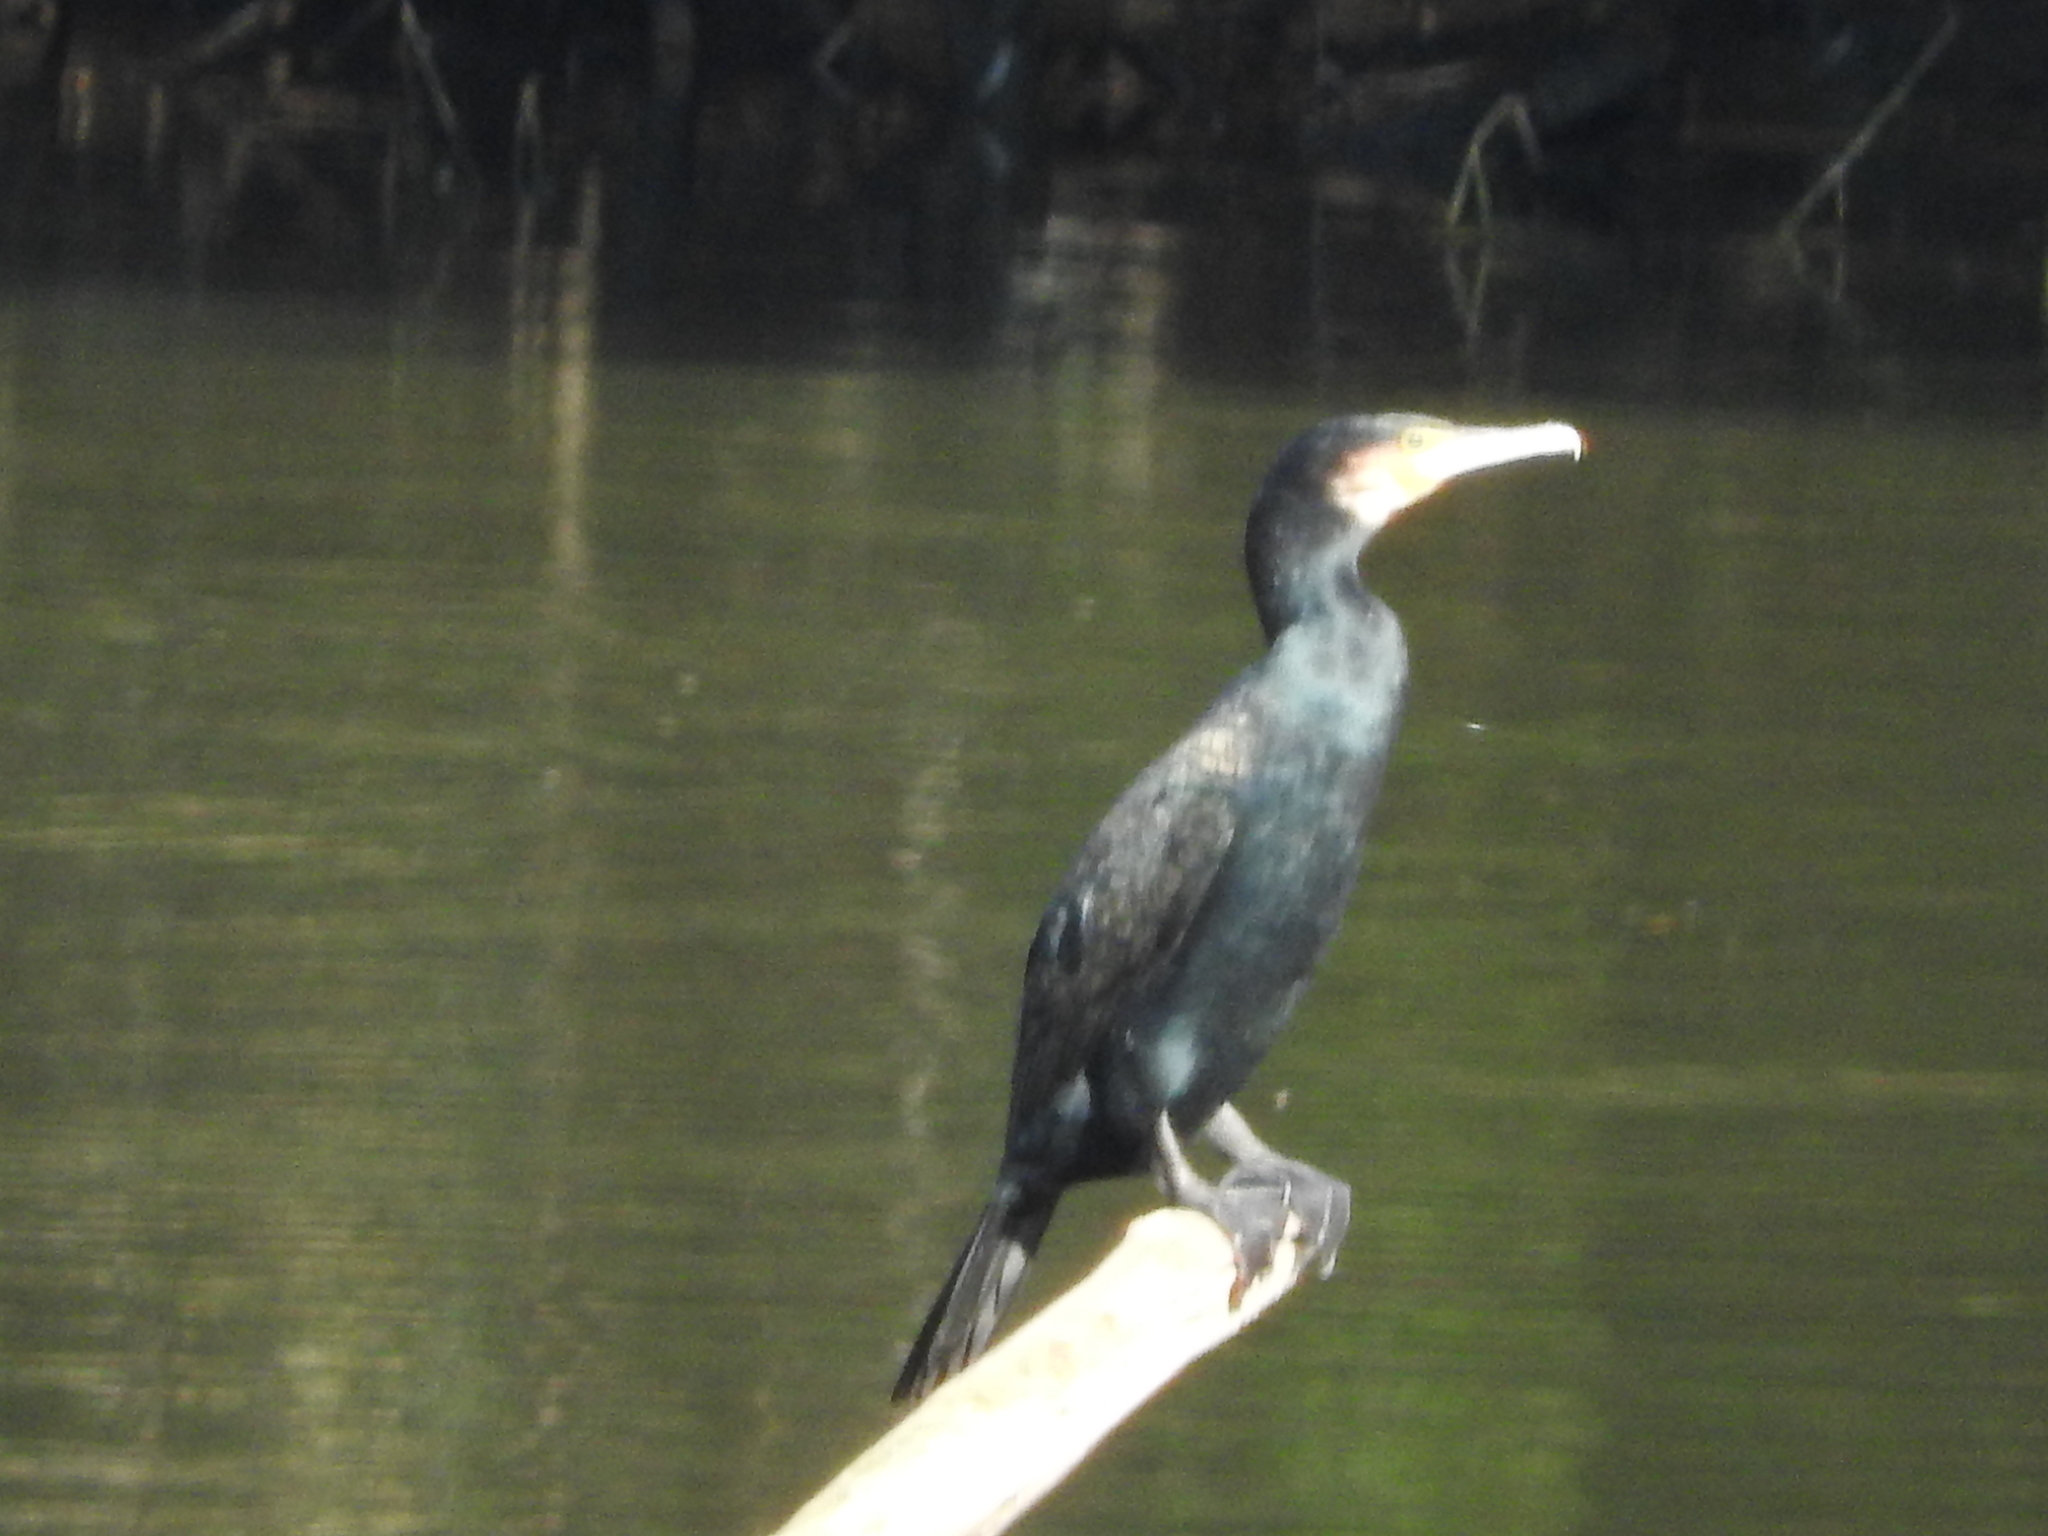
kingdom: Animalia
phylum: Chordata
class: Aves
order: Suliformes
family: Phalacrocoracidae
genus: Phalacrocorax
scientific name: Phalacrocorax carbo
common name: Great cormorant
